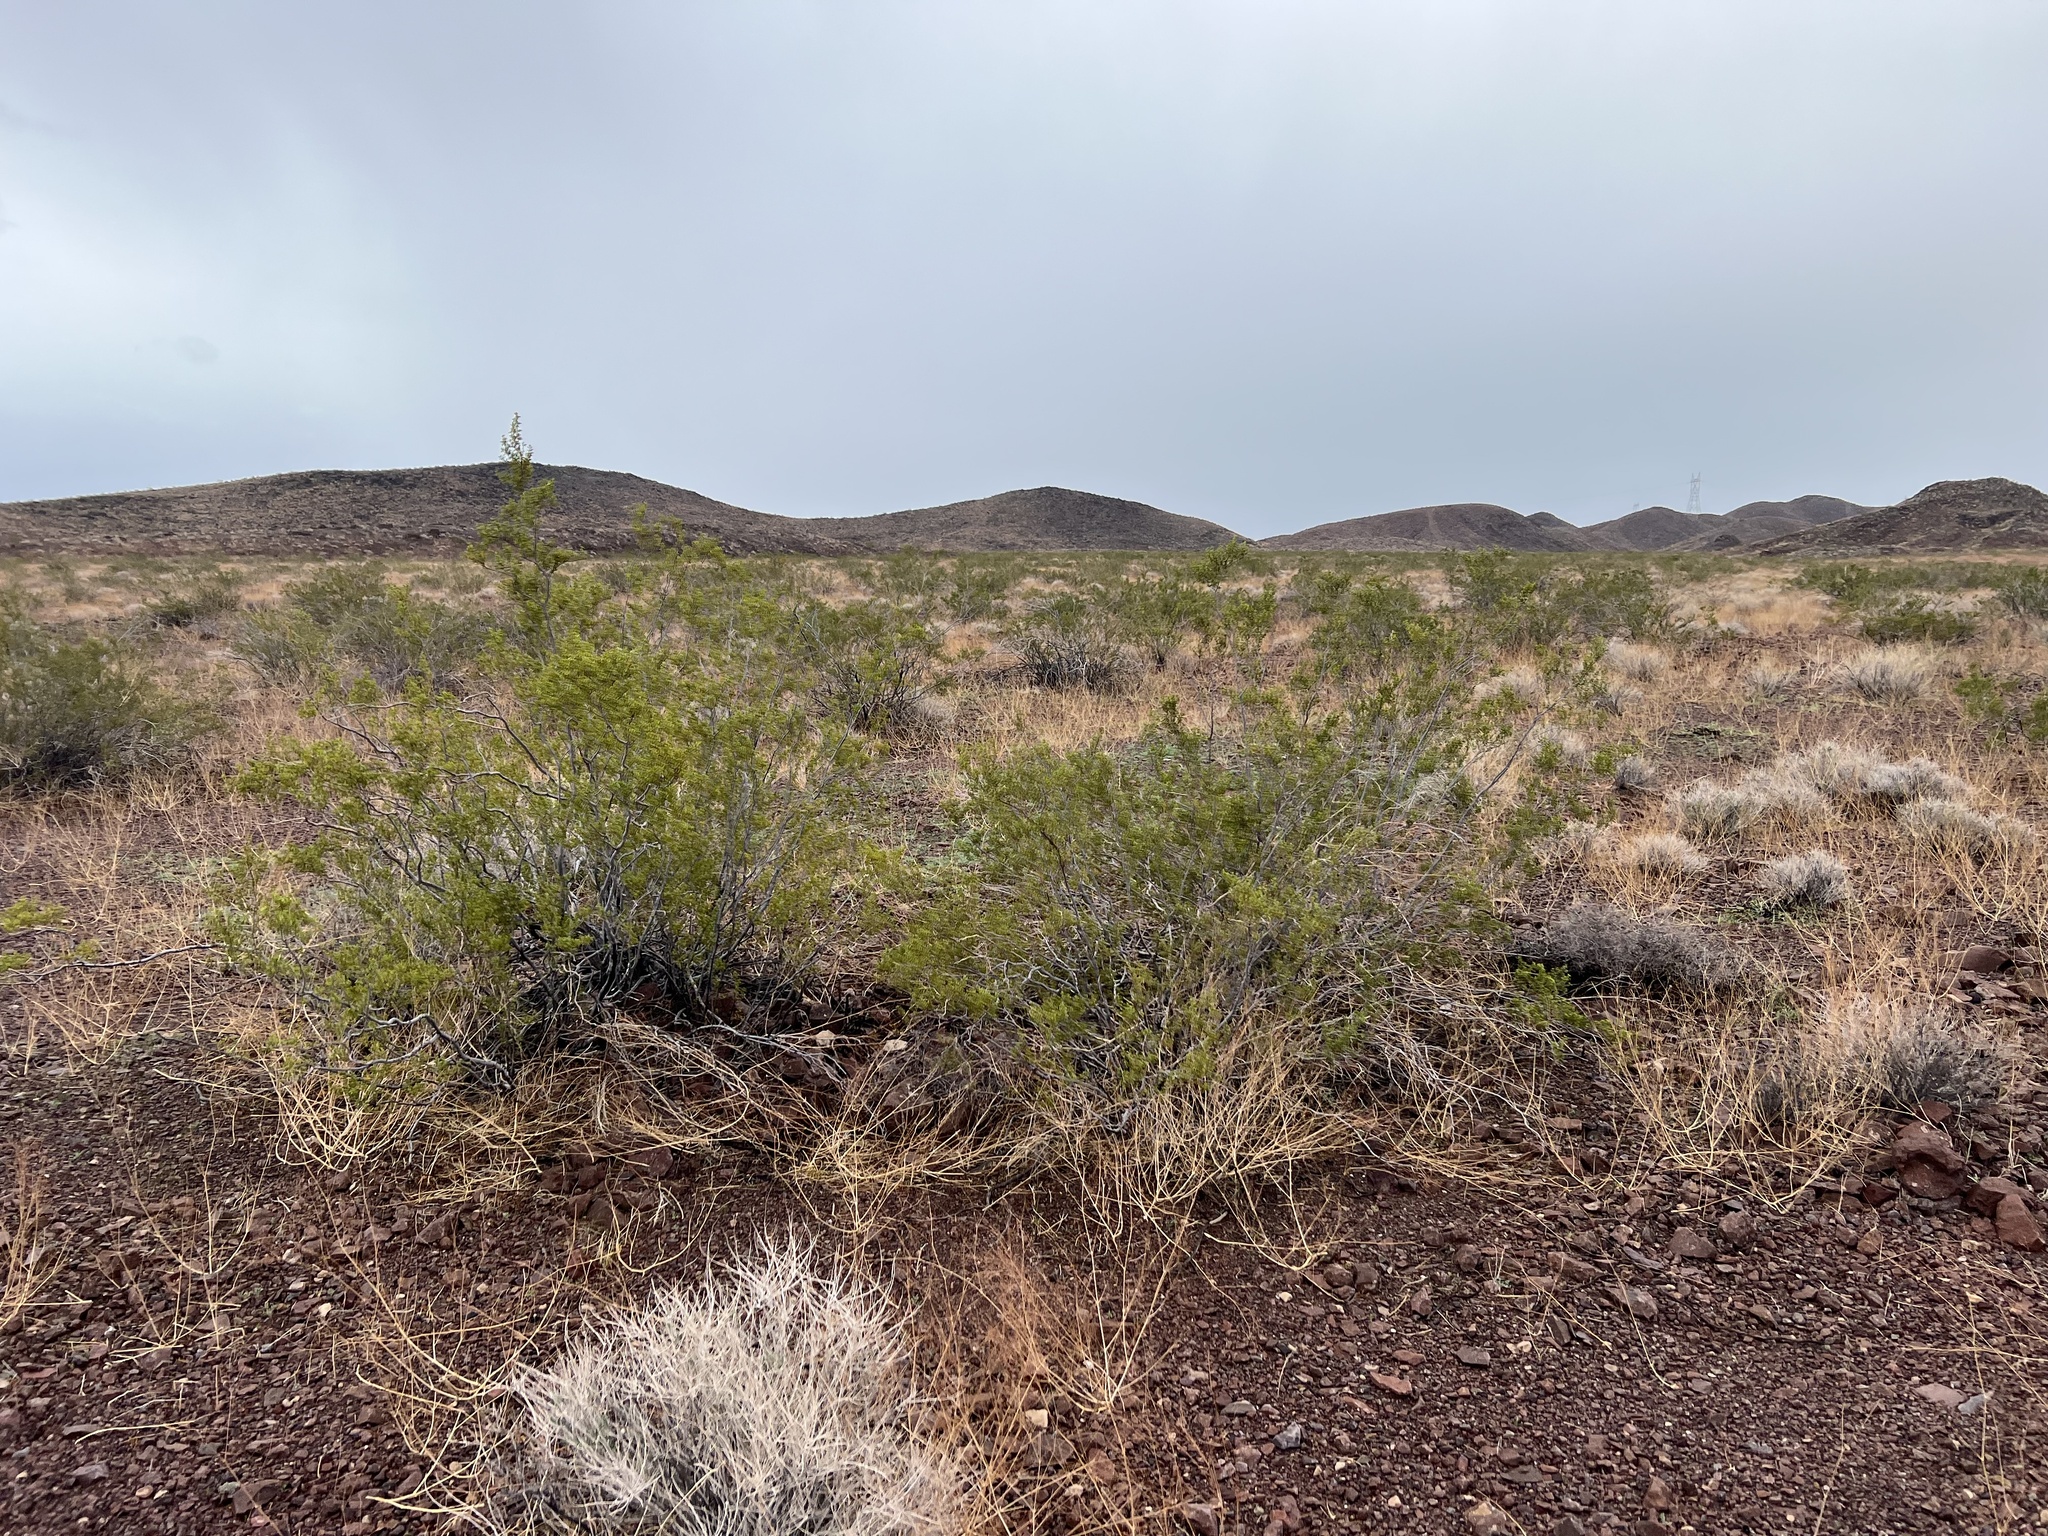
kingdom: Plantae
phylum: Tracheophyta
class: Magnoliopsida
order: Zygophyllales
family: Zygophyllaceae
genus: Larrea
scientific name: Larrea tridentata
